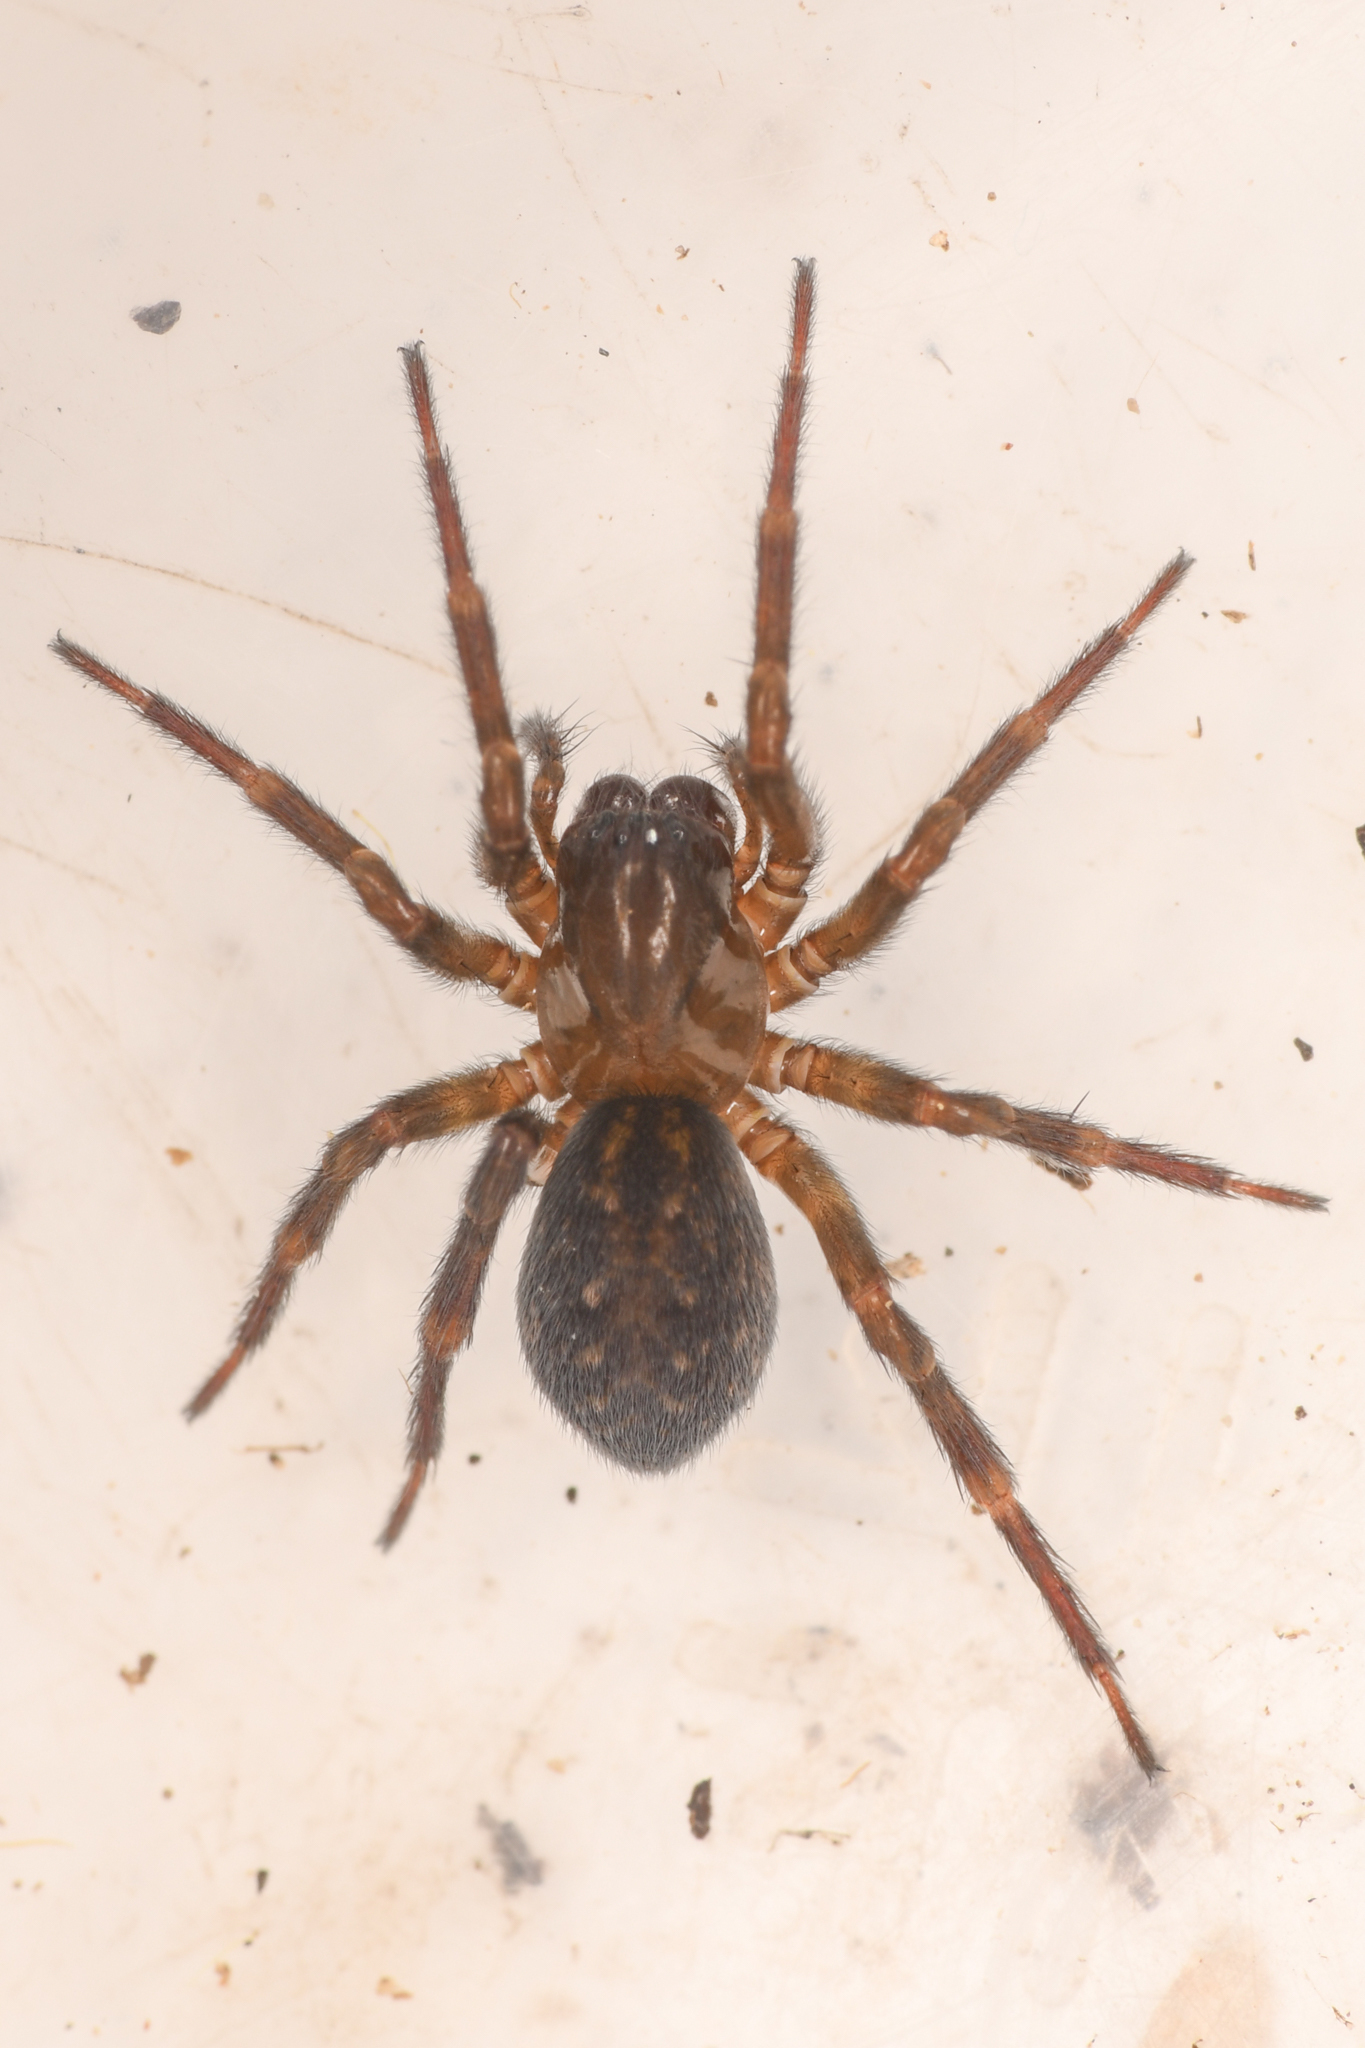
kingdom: Animalia
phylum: Arthropoda
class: Arachnida
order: Araneae
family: Amaurobiidae
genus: Cybaeopsis
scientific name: Cybaeopsis wabritaska
